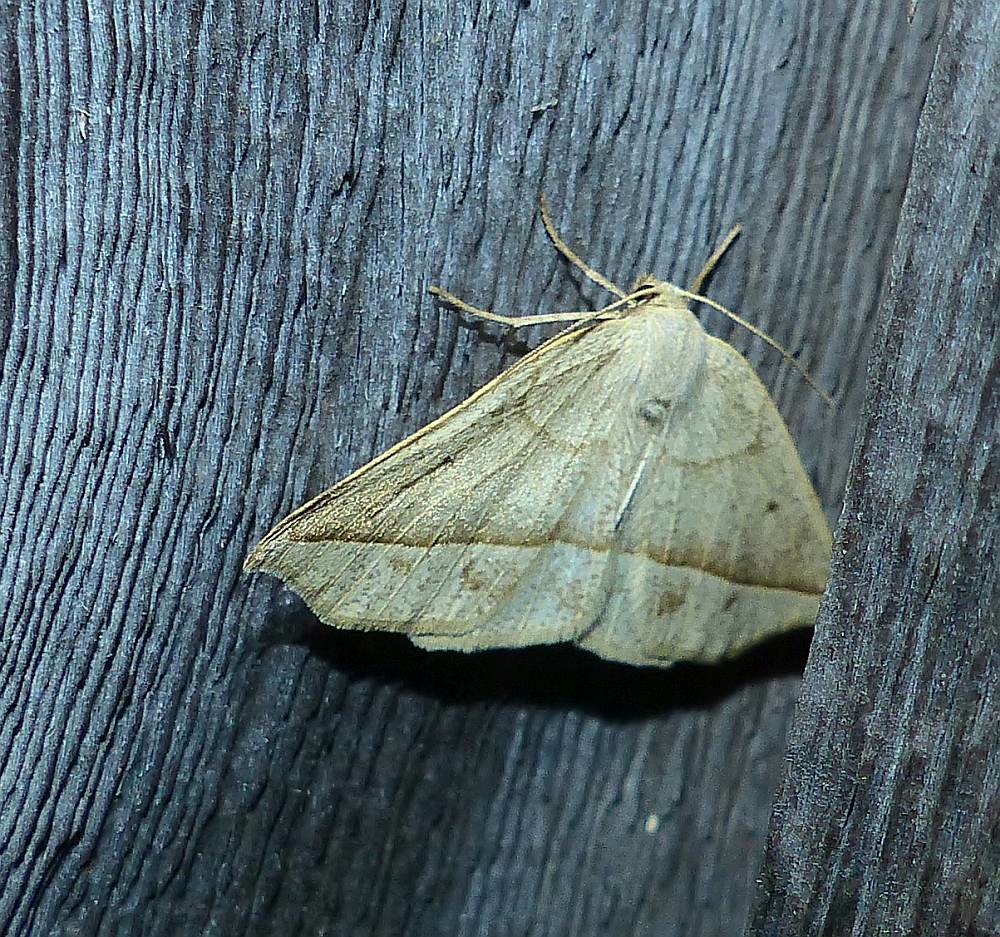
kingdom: Animalia
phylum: Arthropoda
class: Insecta
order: Lepidoptera
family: Geometridae
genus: Eusarca
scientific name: Eusarca confusaria
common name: Confused eusarca
